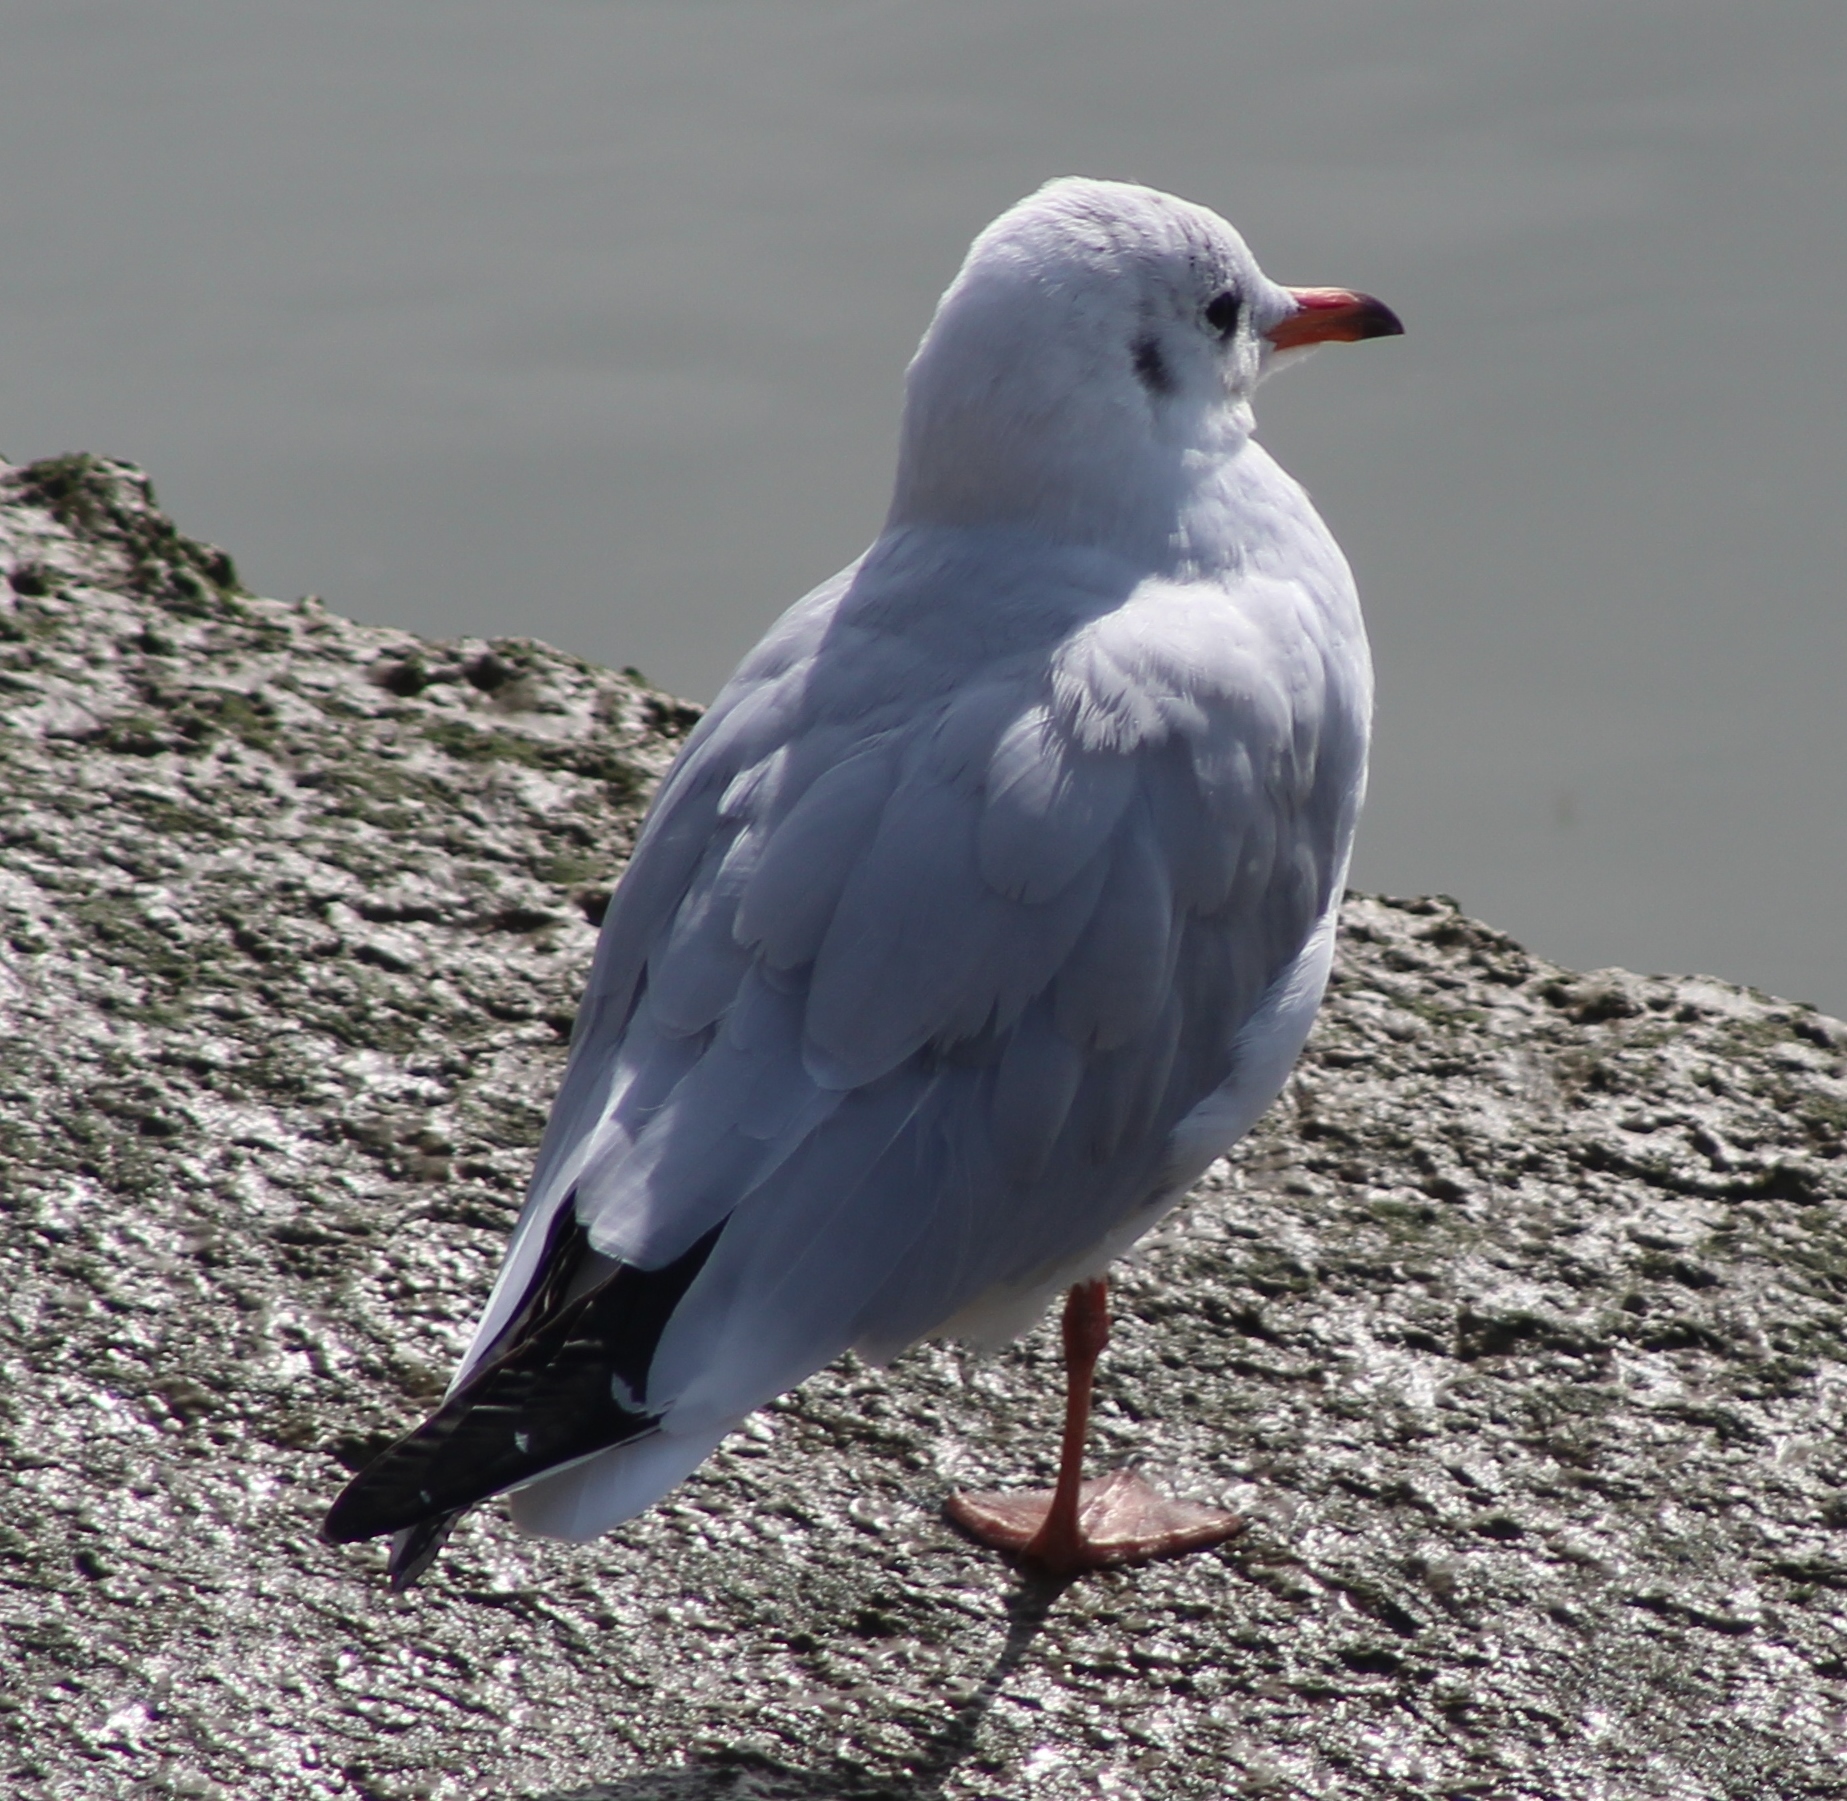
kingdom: Animalia
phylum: Chordata
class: Aves
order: Charadriiformes
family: Laridae
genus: Chroicocephalus
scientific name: Chroicocephalus ridibundus
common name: Black-headed gull
